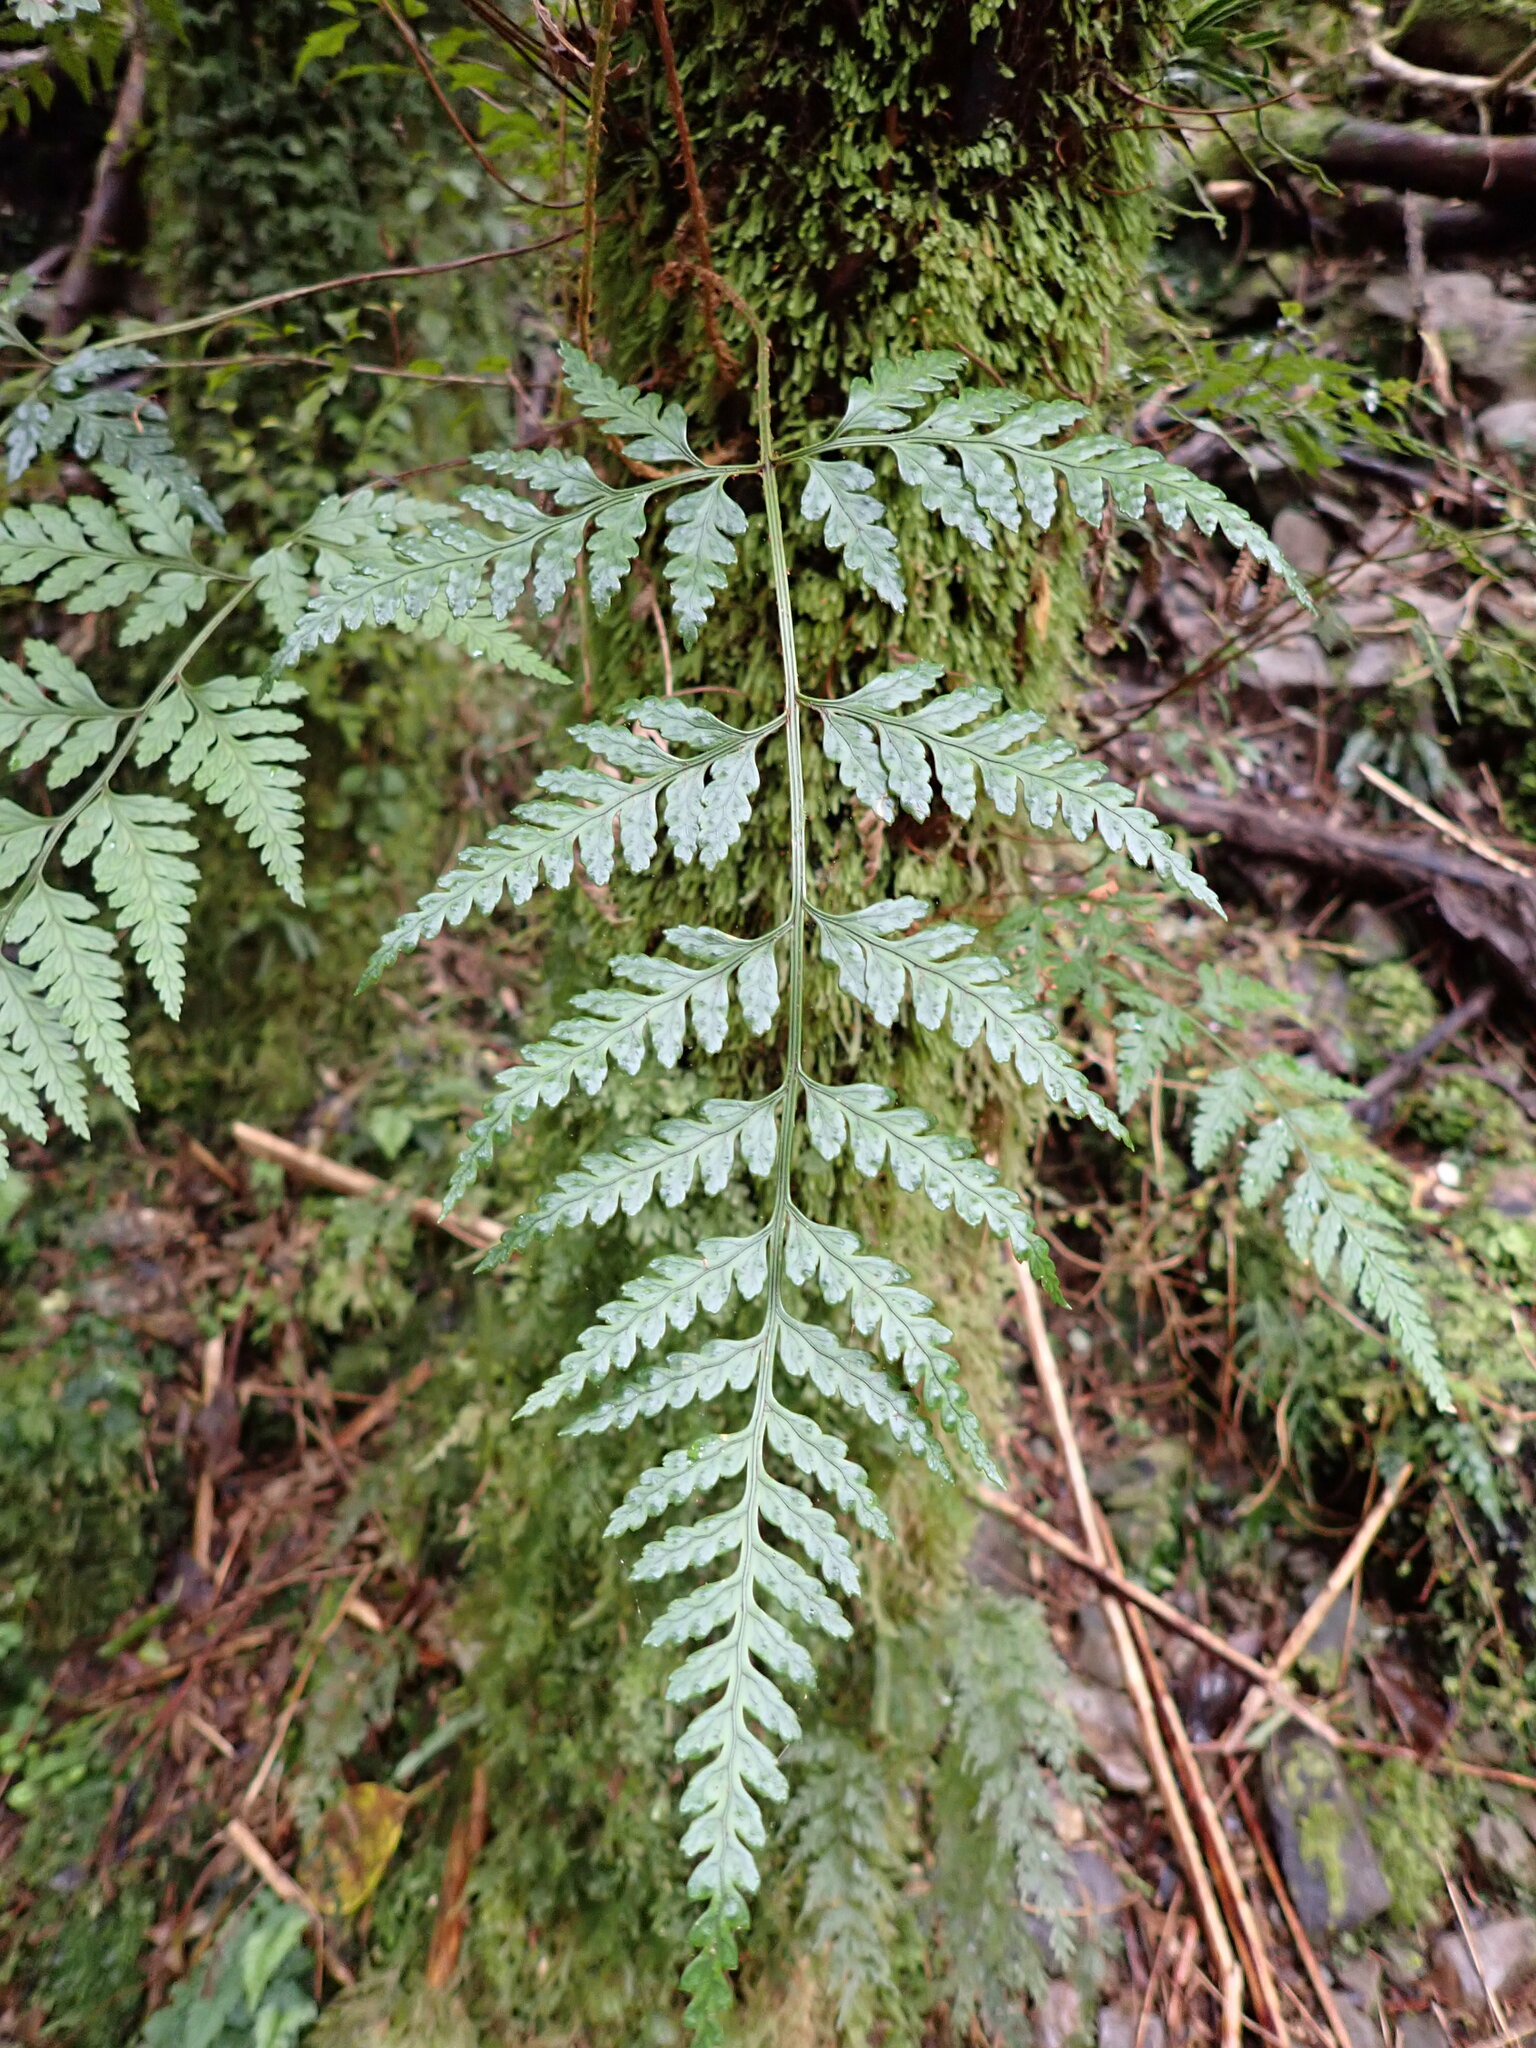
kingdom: Plantae
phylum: Tracheophyta
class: Polypodiopsida
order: Polypodiales
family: Dryopteridaceae
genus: Rumohra
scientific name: Rumohra adiantiformis
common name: Leather fern
